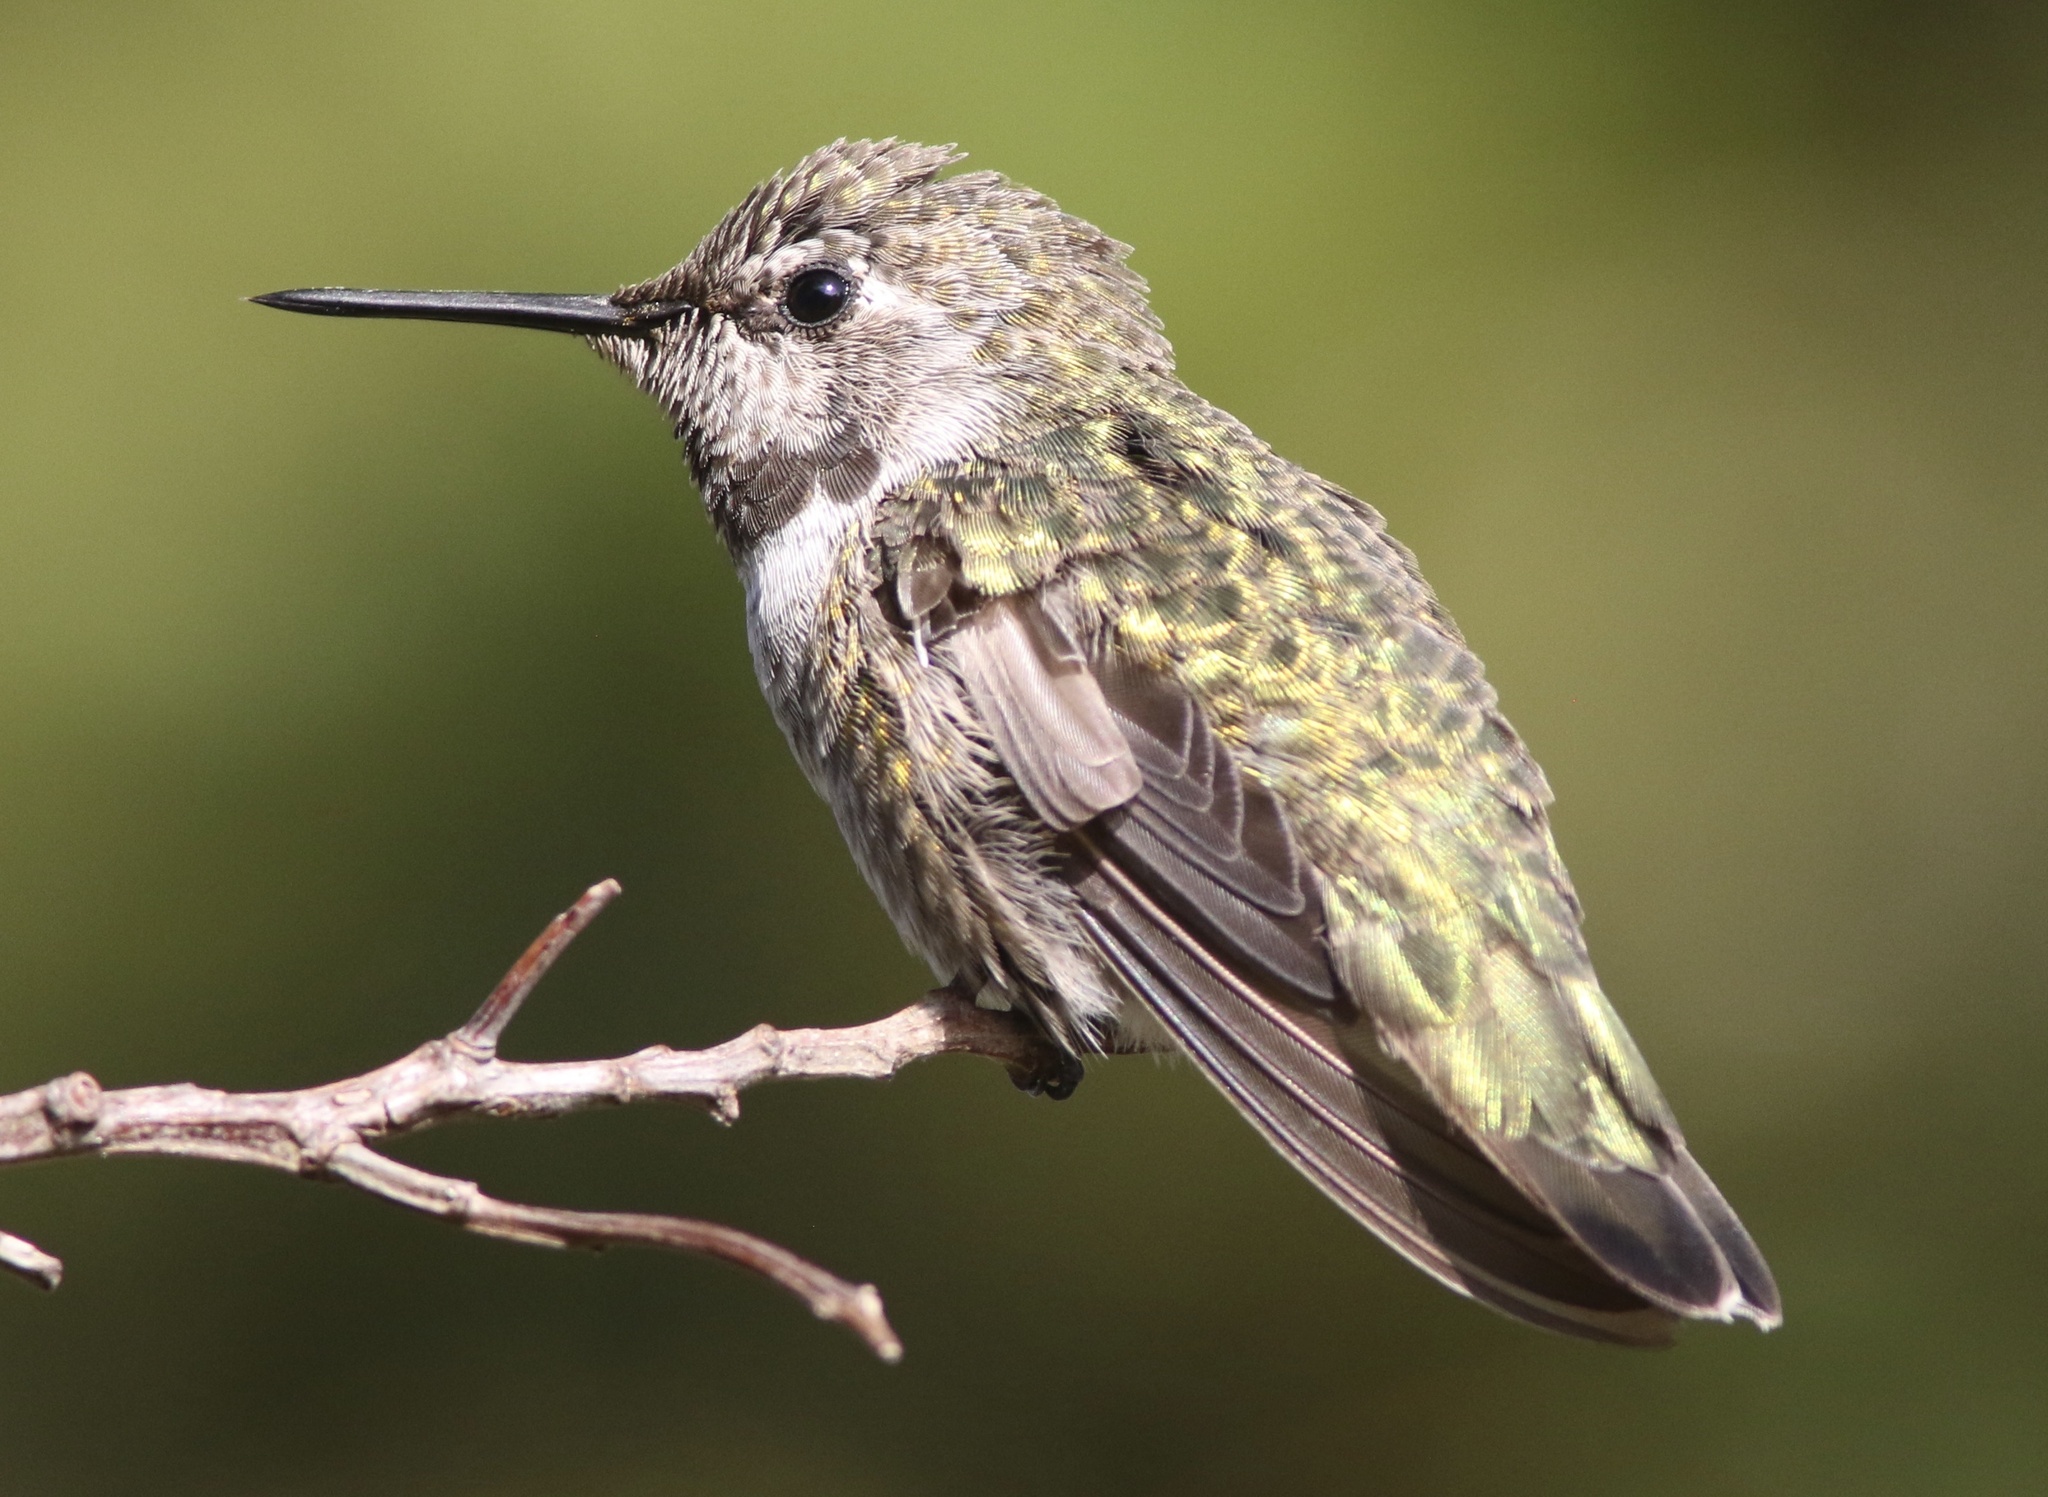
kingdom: Animalia
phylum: Chordata
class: Aves
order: Apodiformes
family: Trochilidae
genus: Calypte
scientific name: Calypte anna
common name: Anna's hummingbird
